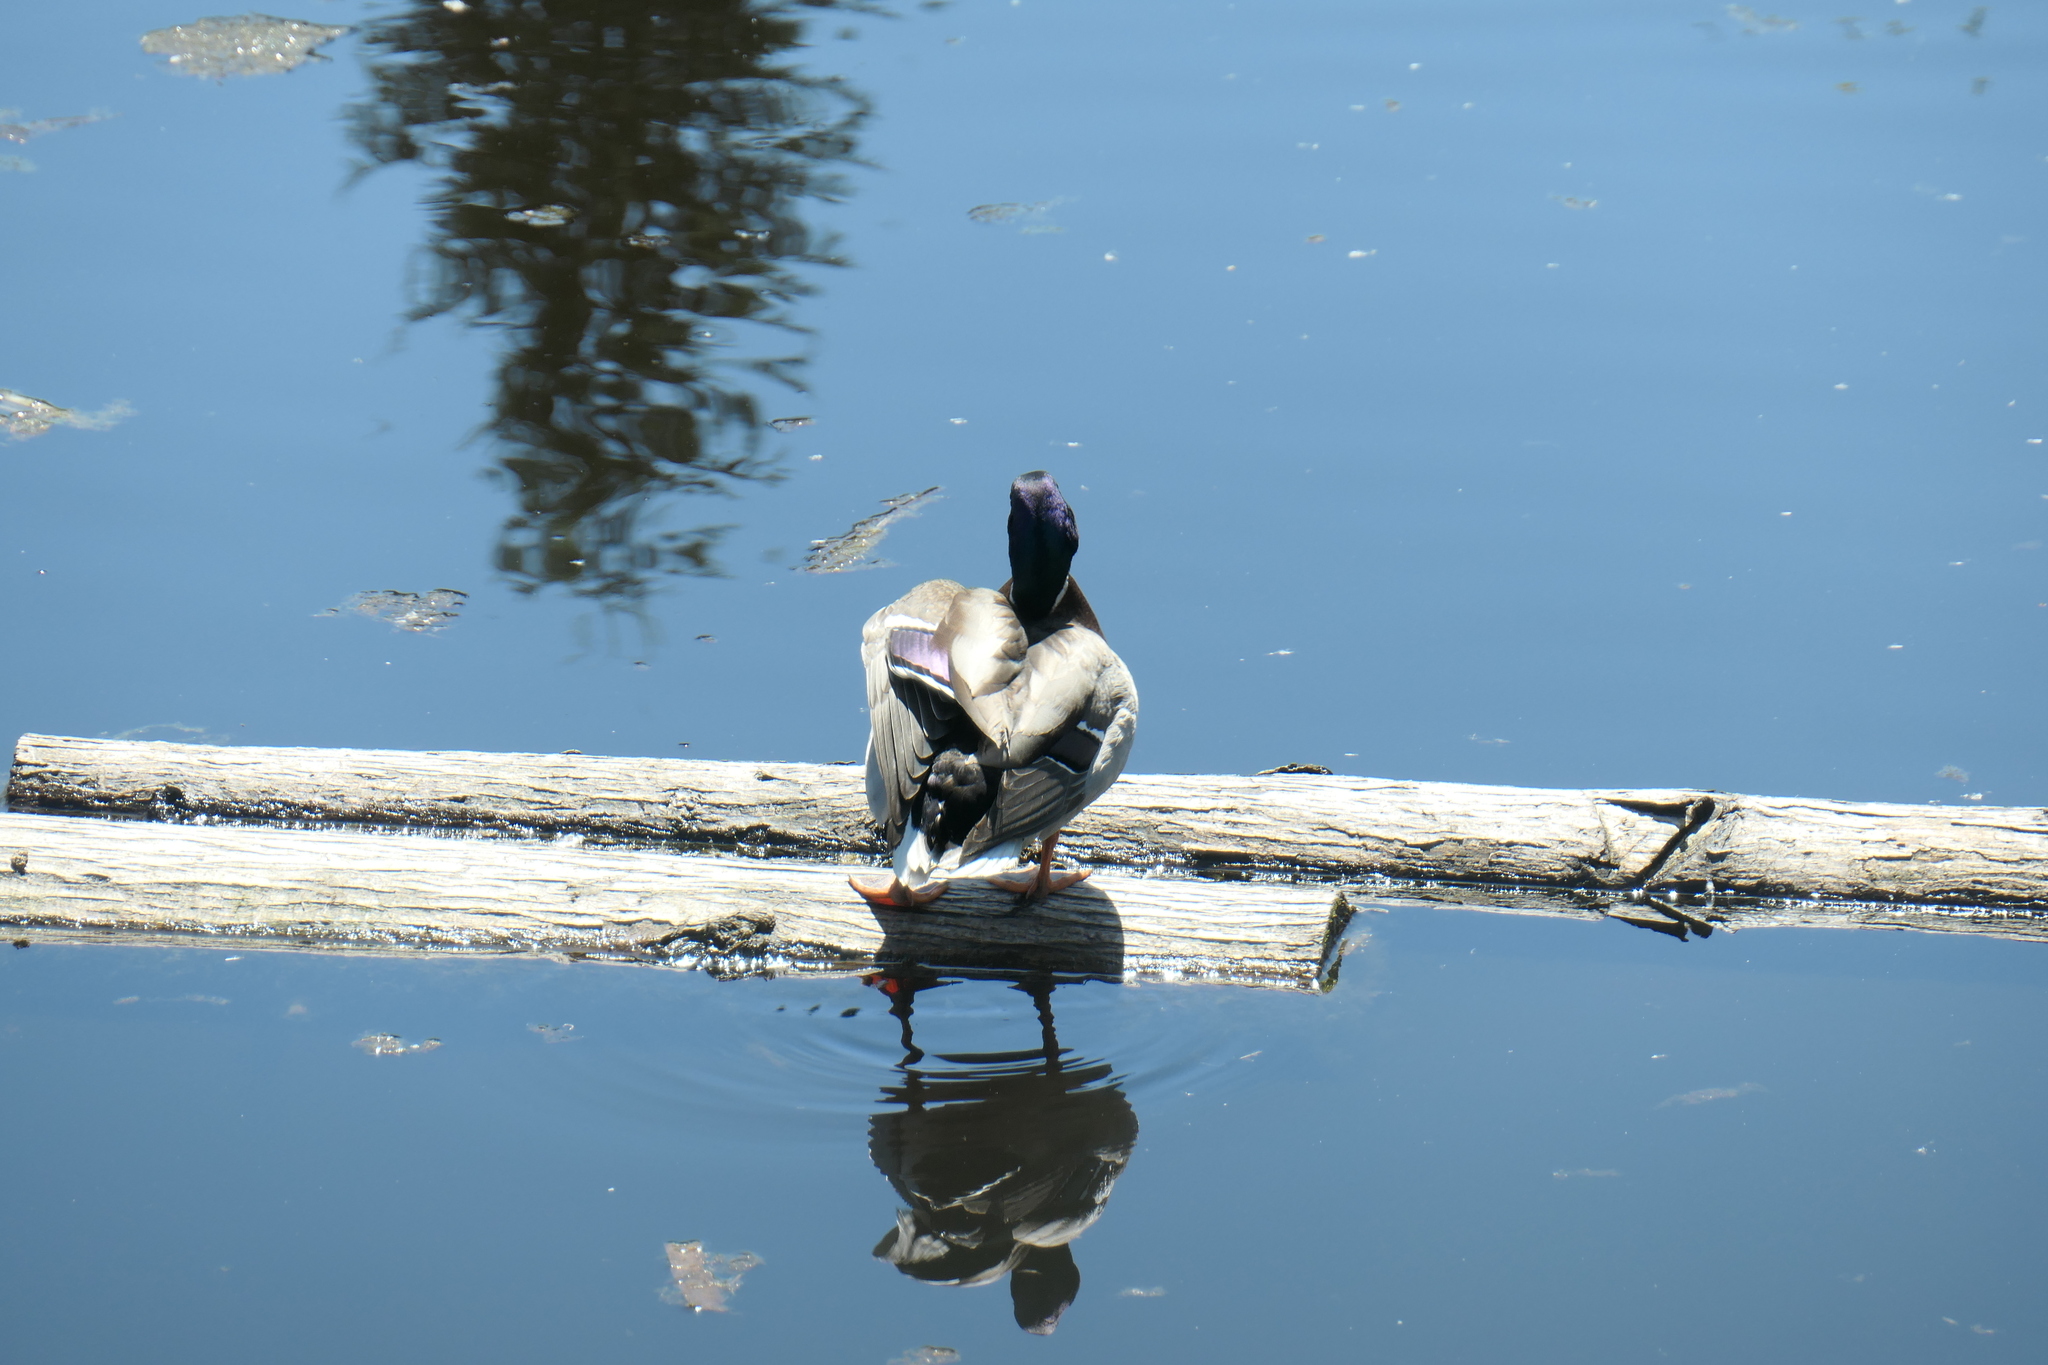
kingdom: Animalia
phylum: Chordata
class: Aves
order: Anseriformes
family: Anatidae
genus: Anas
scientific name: Anas platyrhynchos
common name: Mallard
